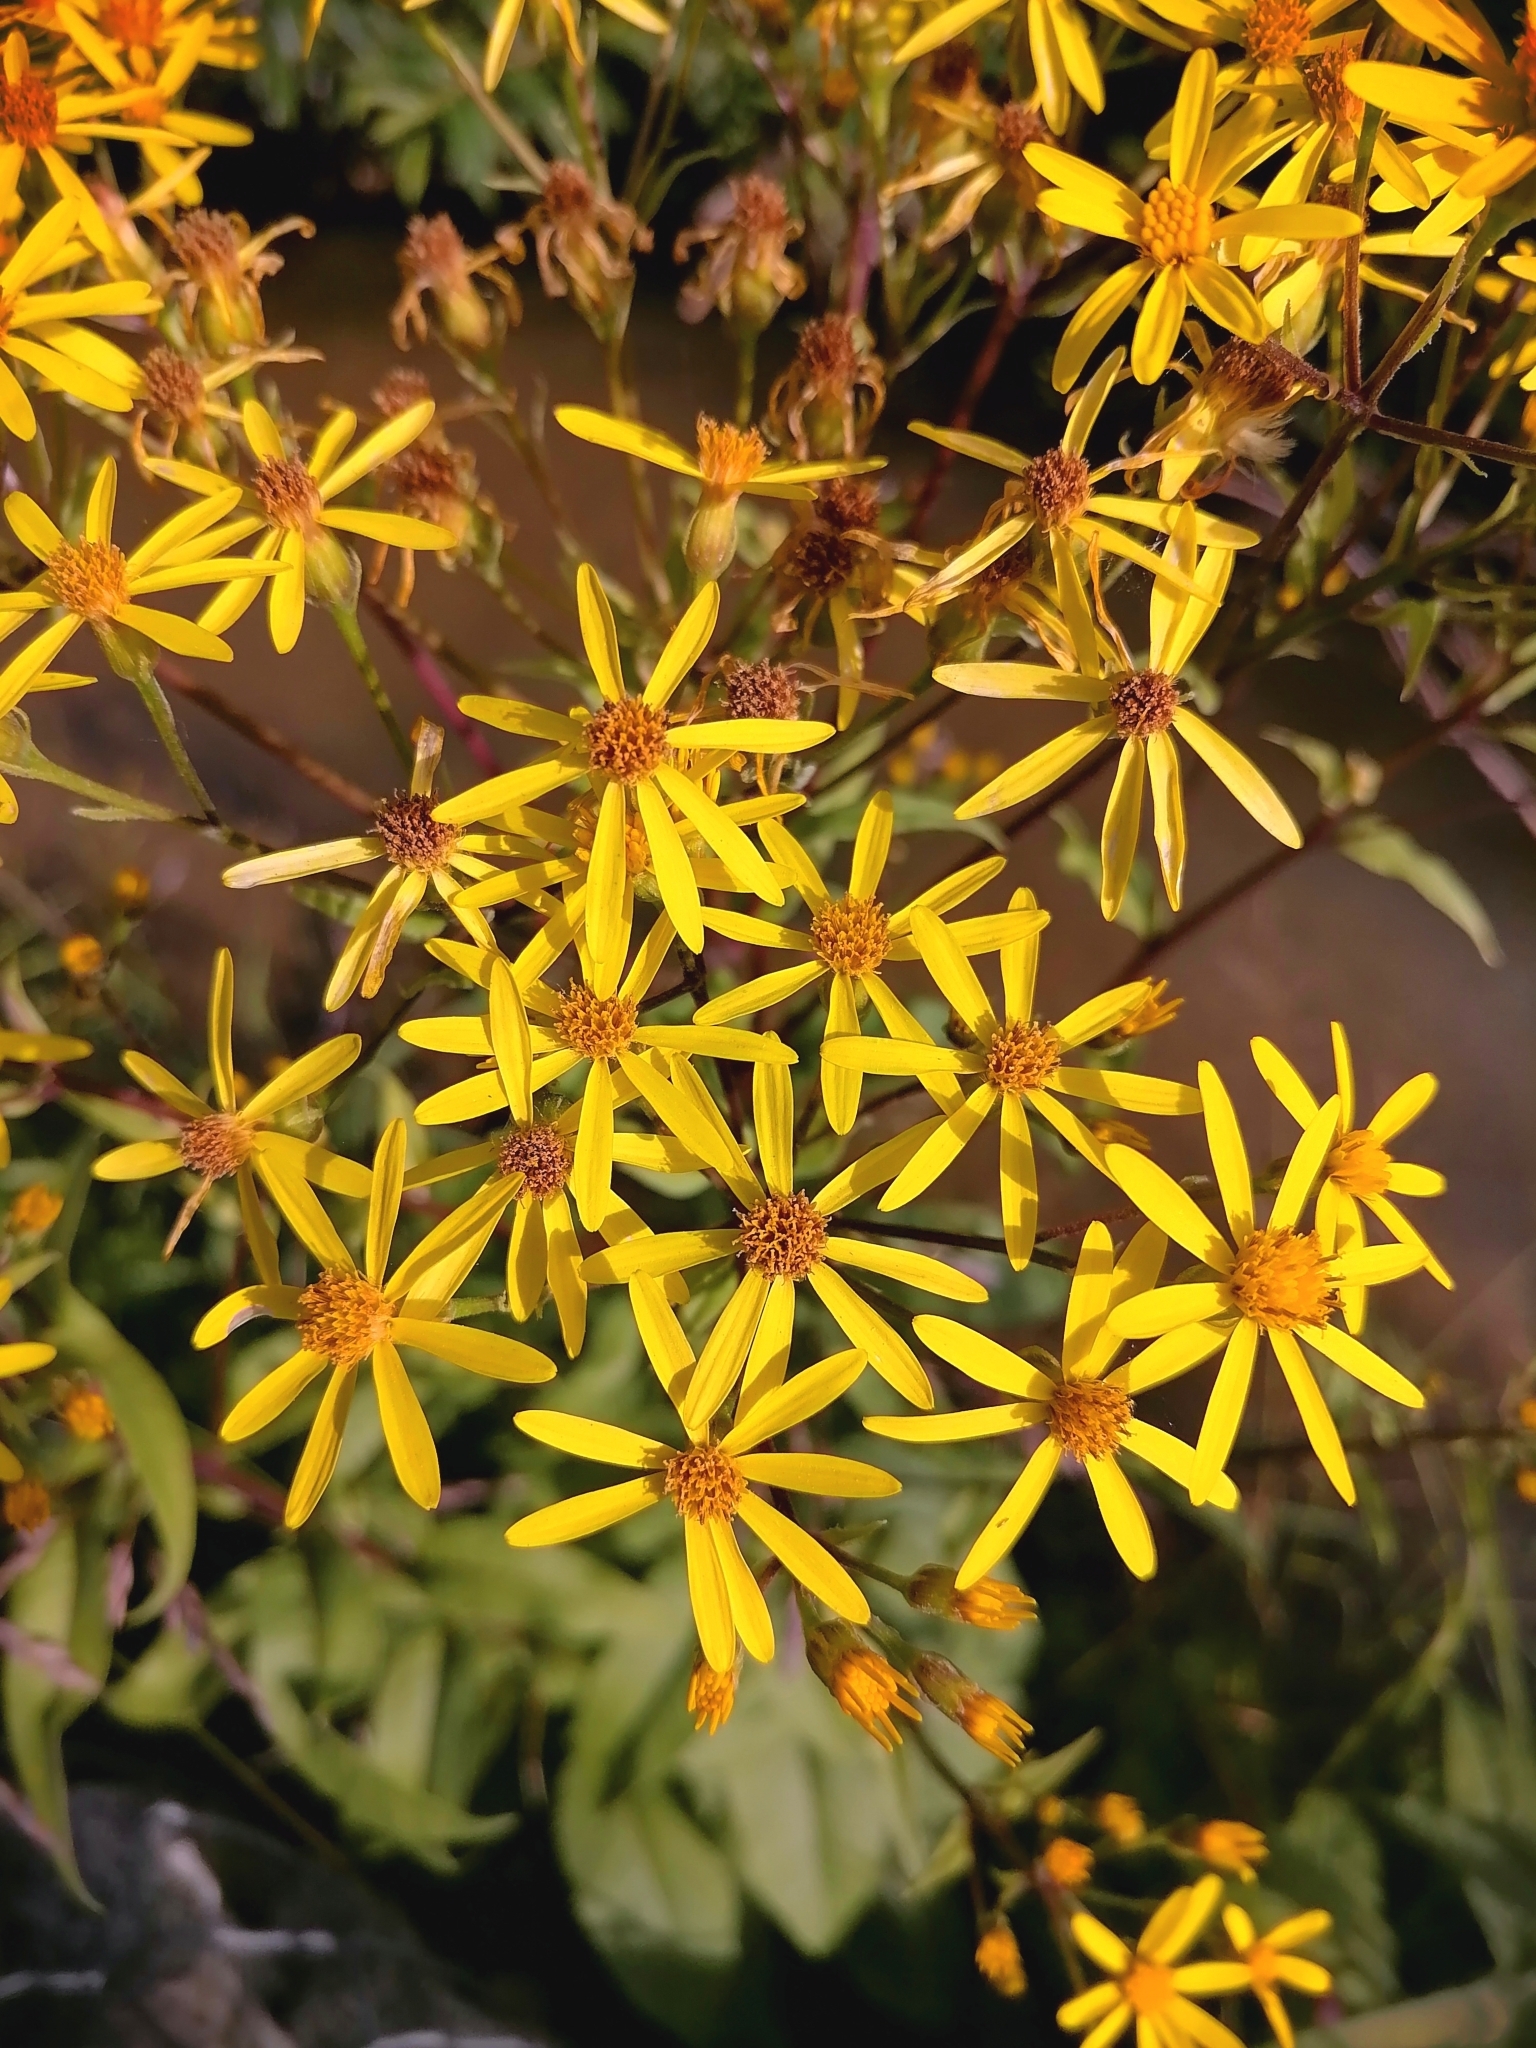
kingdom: Plantae
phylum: Tracheophyta
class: Magnoliopsida
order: Asterales
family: Asteraceae
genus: Senecio
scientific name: Senecio nemorensis
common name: Alpine ragwort
